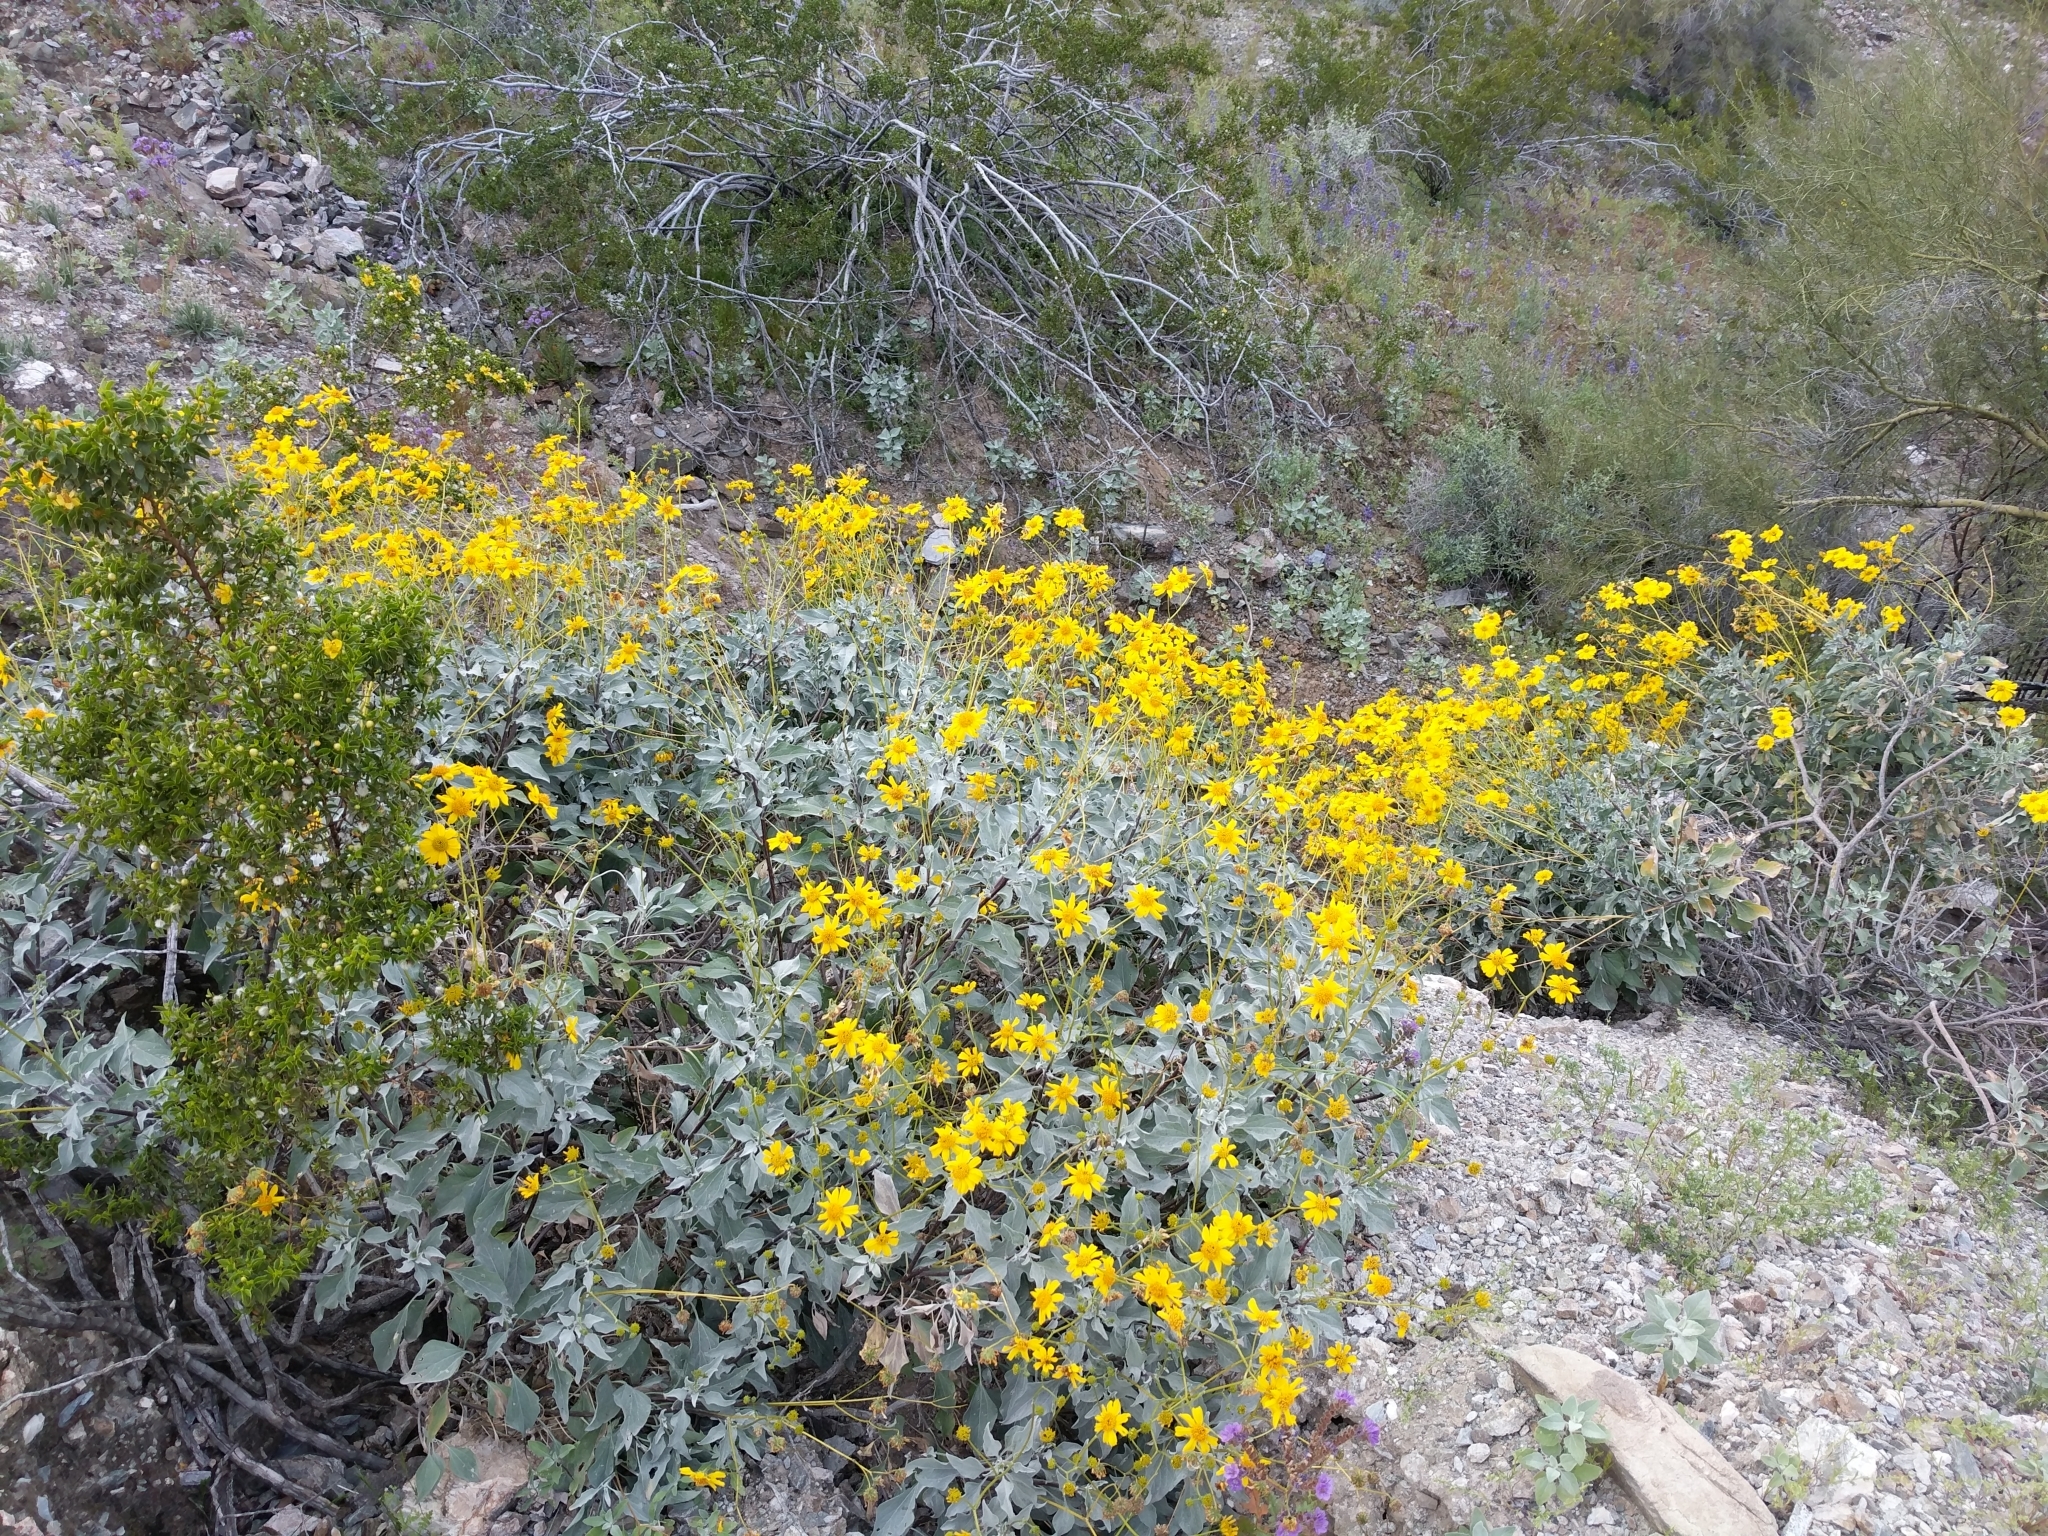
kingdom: Plantae
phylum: Tracheophyta
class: Magnoliopsida
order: Asterales
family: Asteraceae
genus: Encelia
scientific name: Encelia farinosa
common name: Brittlebush
